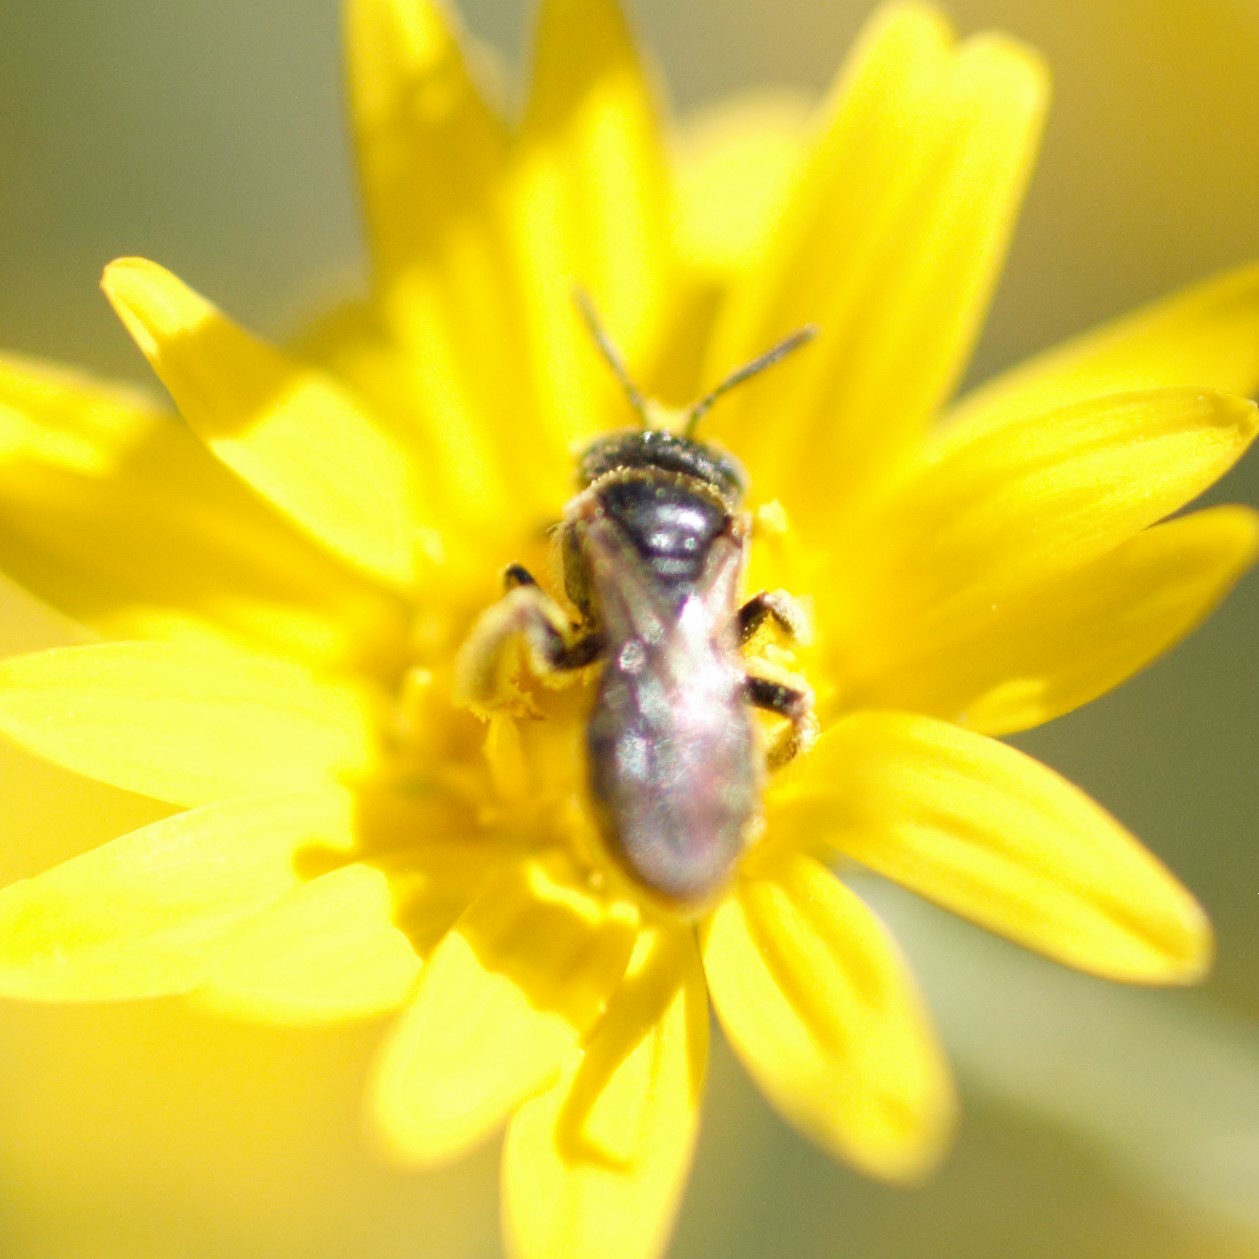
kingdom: Animalia
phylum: Arthropoda
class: Insecta
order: Hymenoptera
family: Andrenidae
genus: Pterosarus
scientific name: Pterosarus
